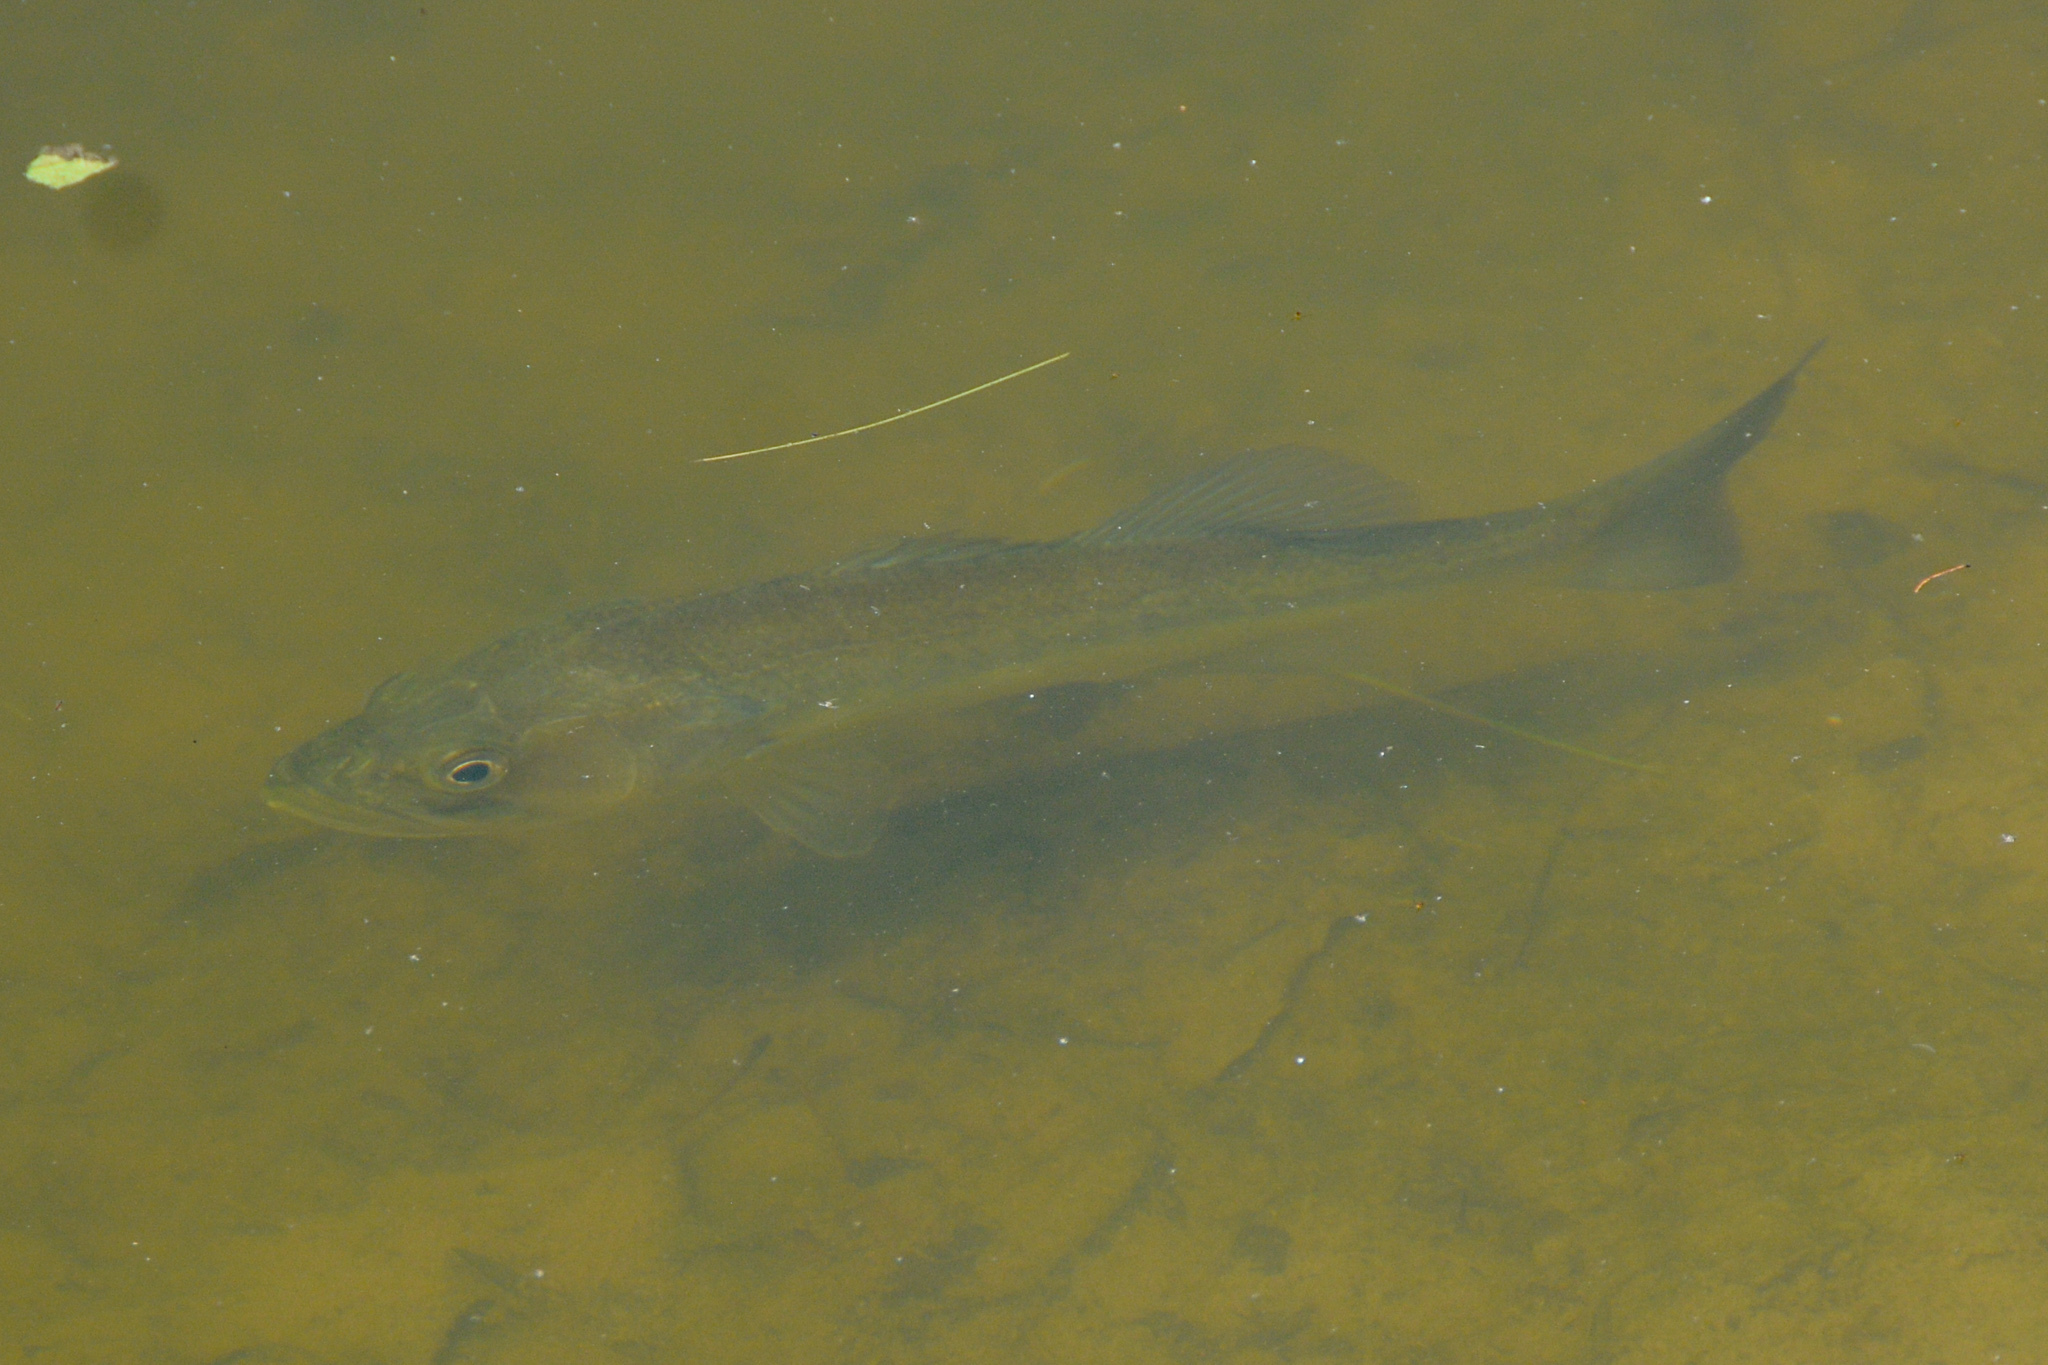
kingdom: Animalia
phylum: Chordata
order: Perciformes
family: Centrarchidae
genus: Micropterus
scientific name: Micropterus
